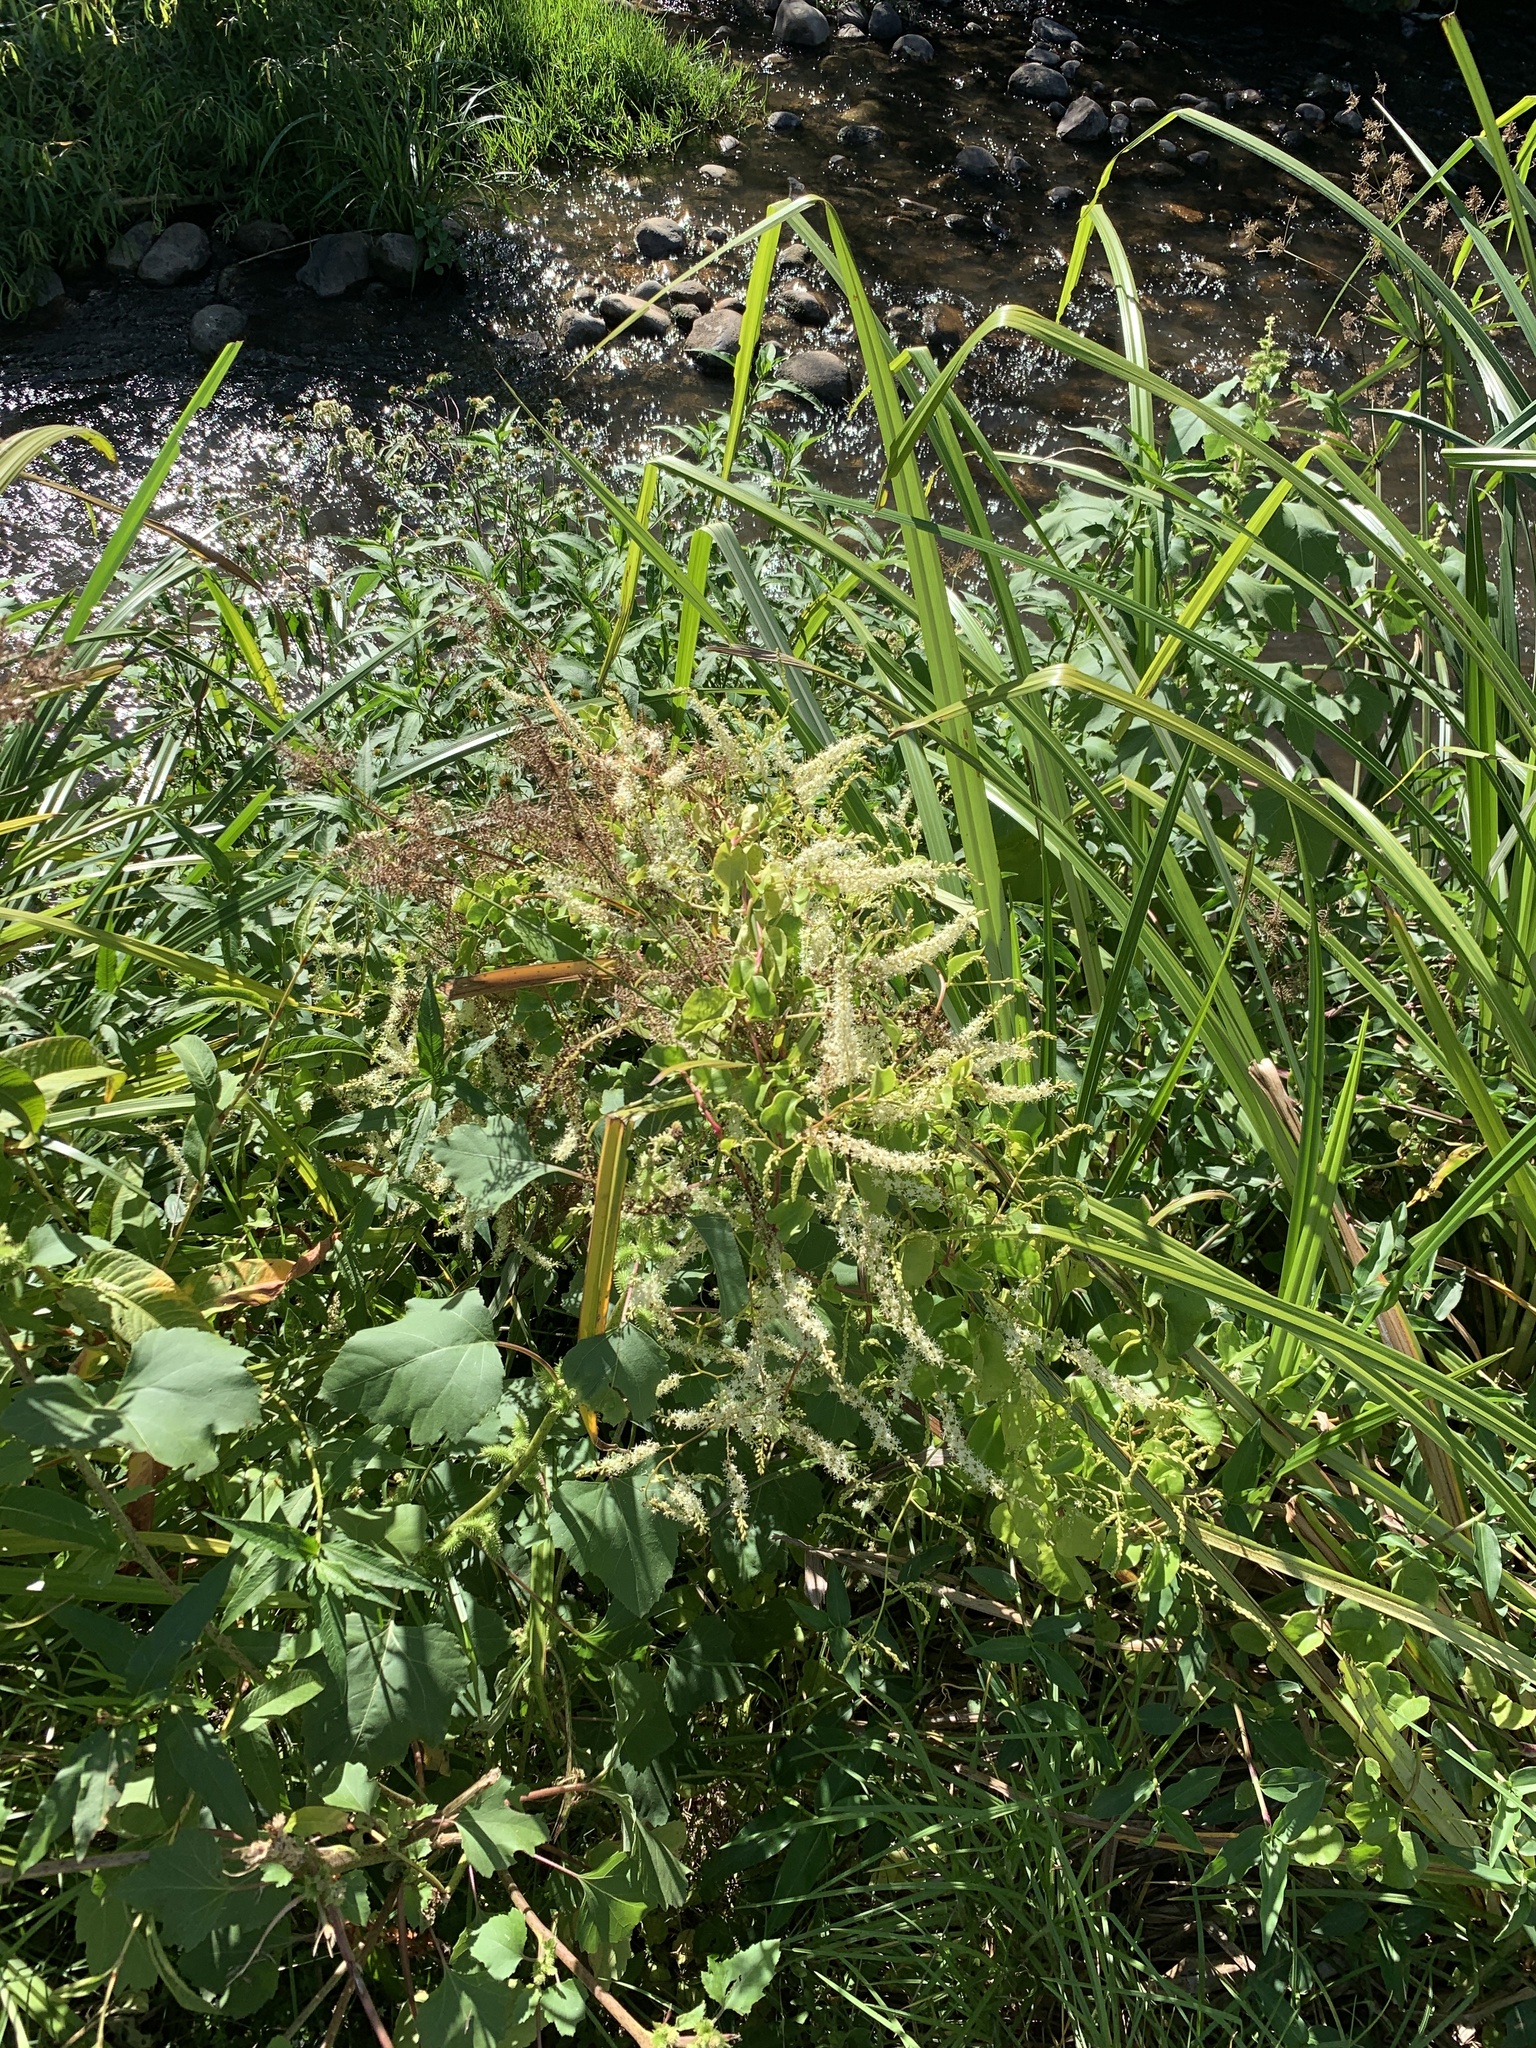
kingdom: Plantae
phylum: Tracheophyta
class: Magnoliopsida
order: Caryophyllales
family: Basellaceae
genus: Anredera
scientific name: Anredera cordifolia
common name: Heartleaf madeiravine
